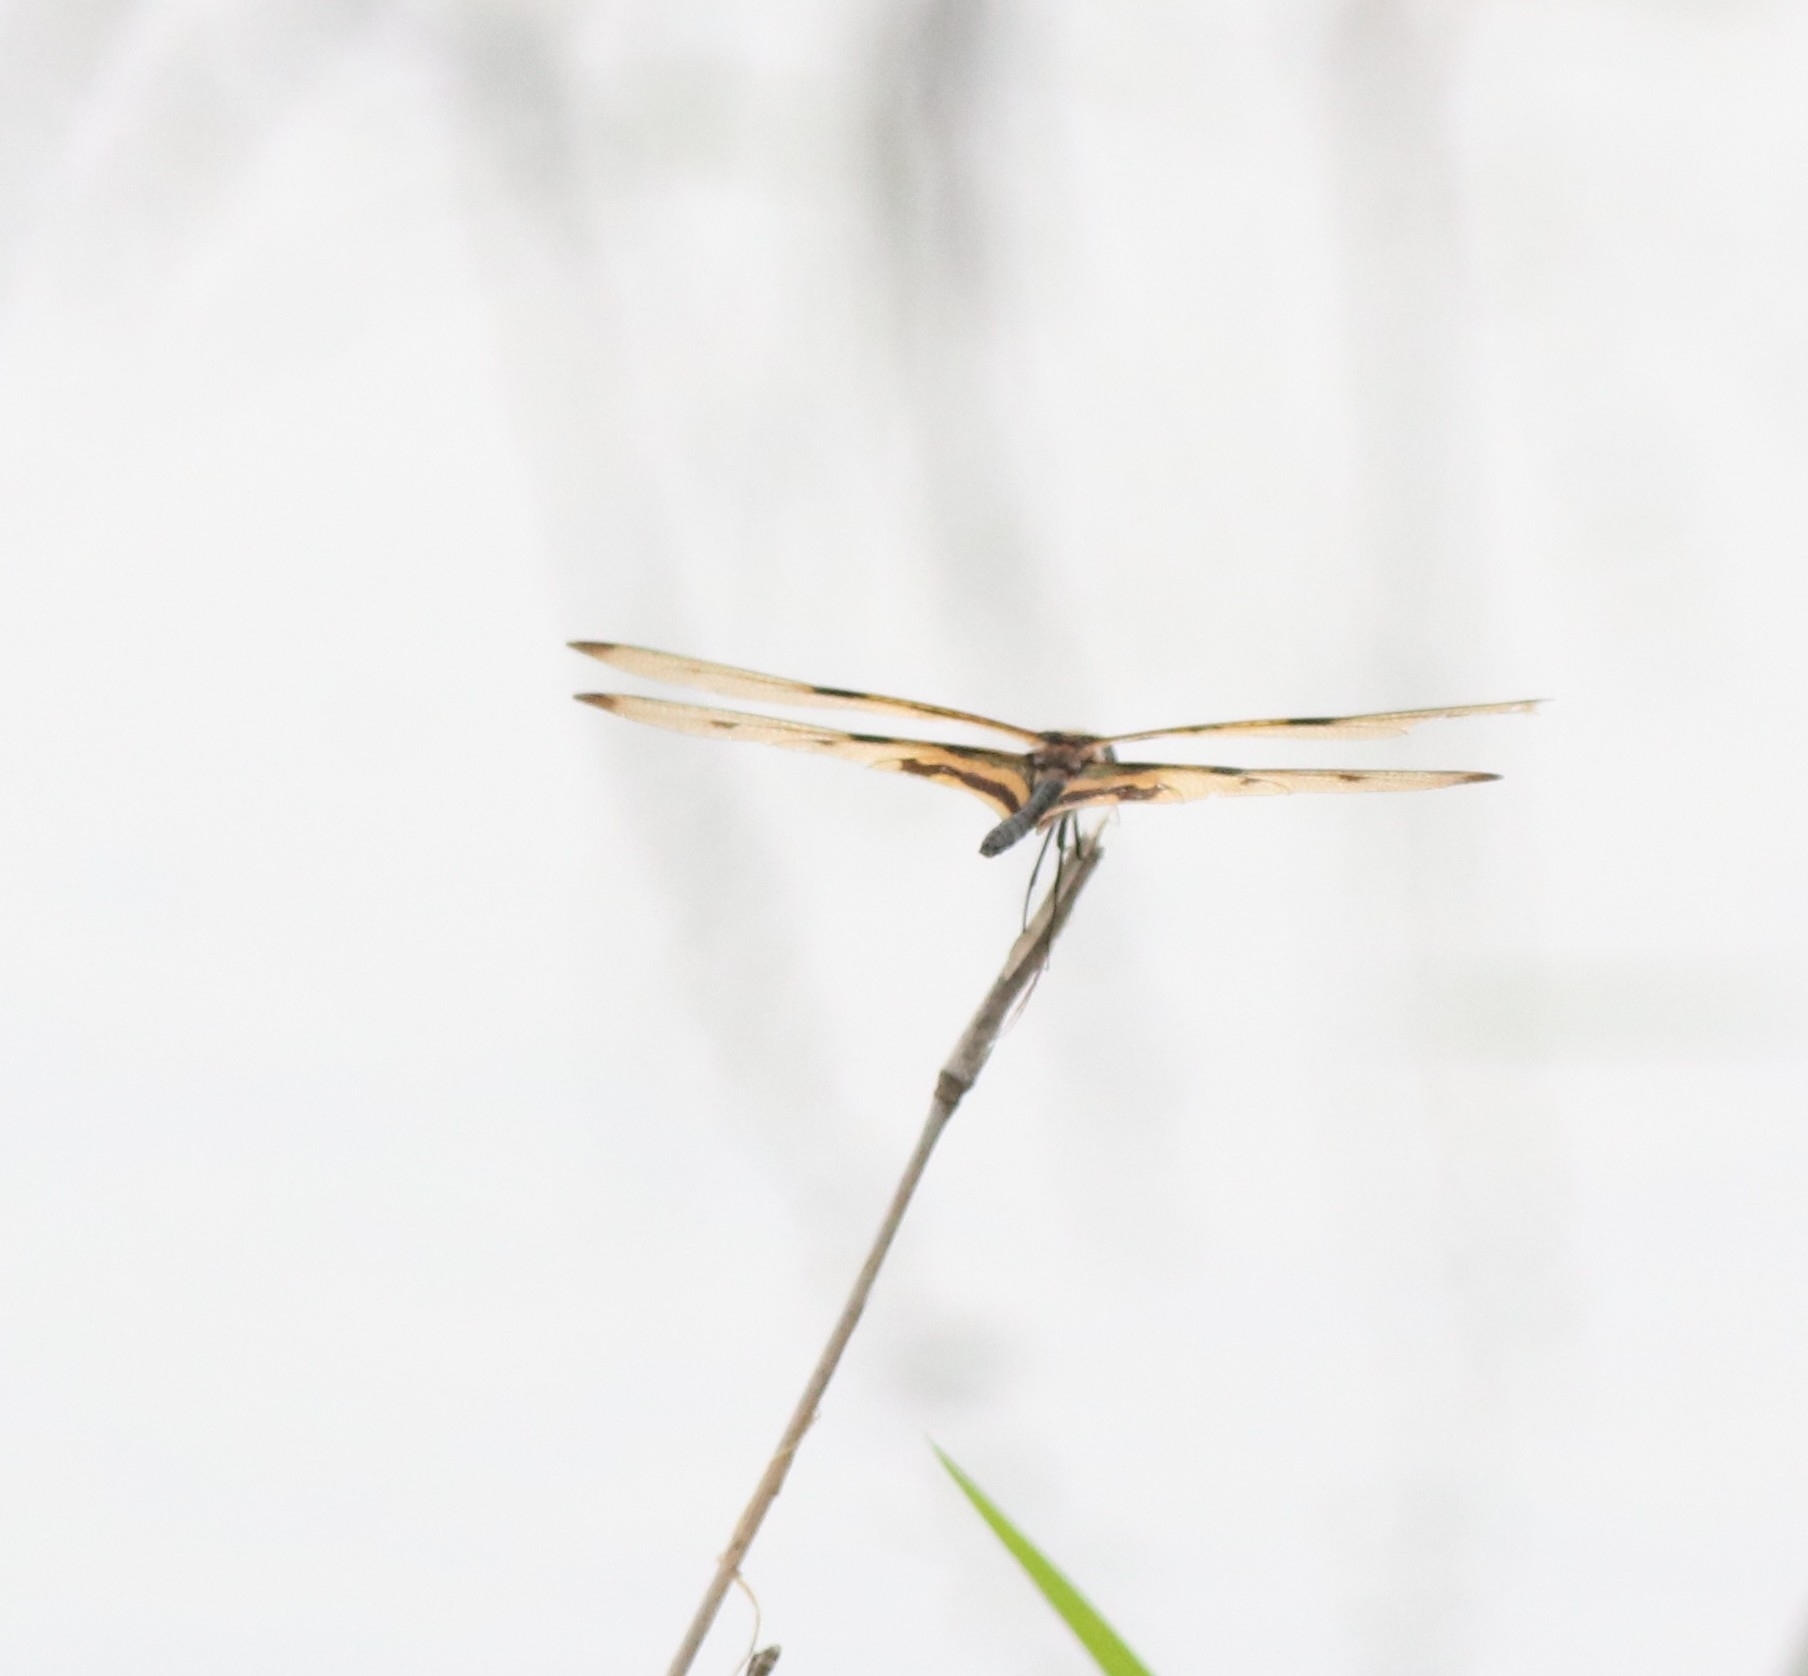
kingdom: Animalia
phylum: Arthropoda
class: Insecta
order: Odonata
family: Libellulidae
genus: Rhyothemis
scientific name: Rhyothemis variegata
